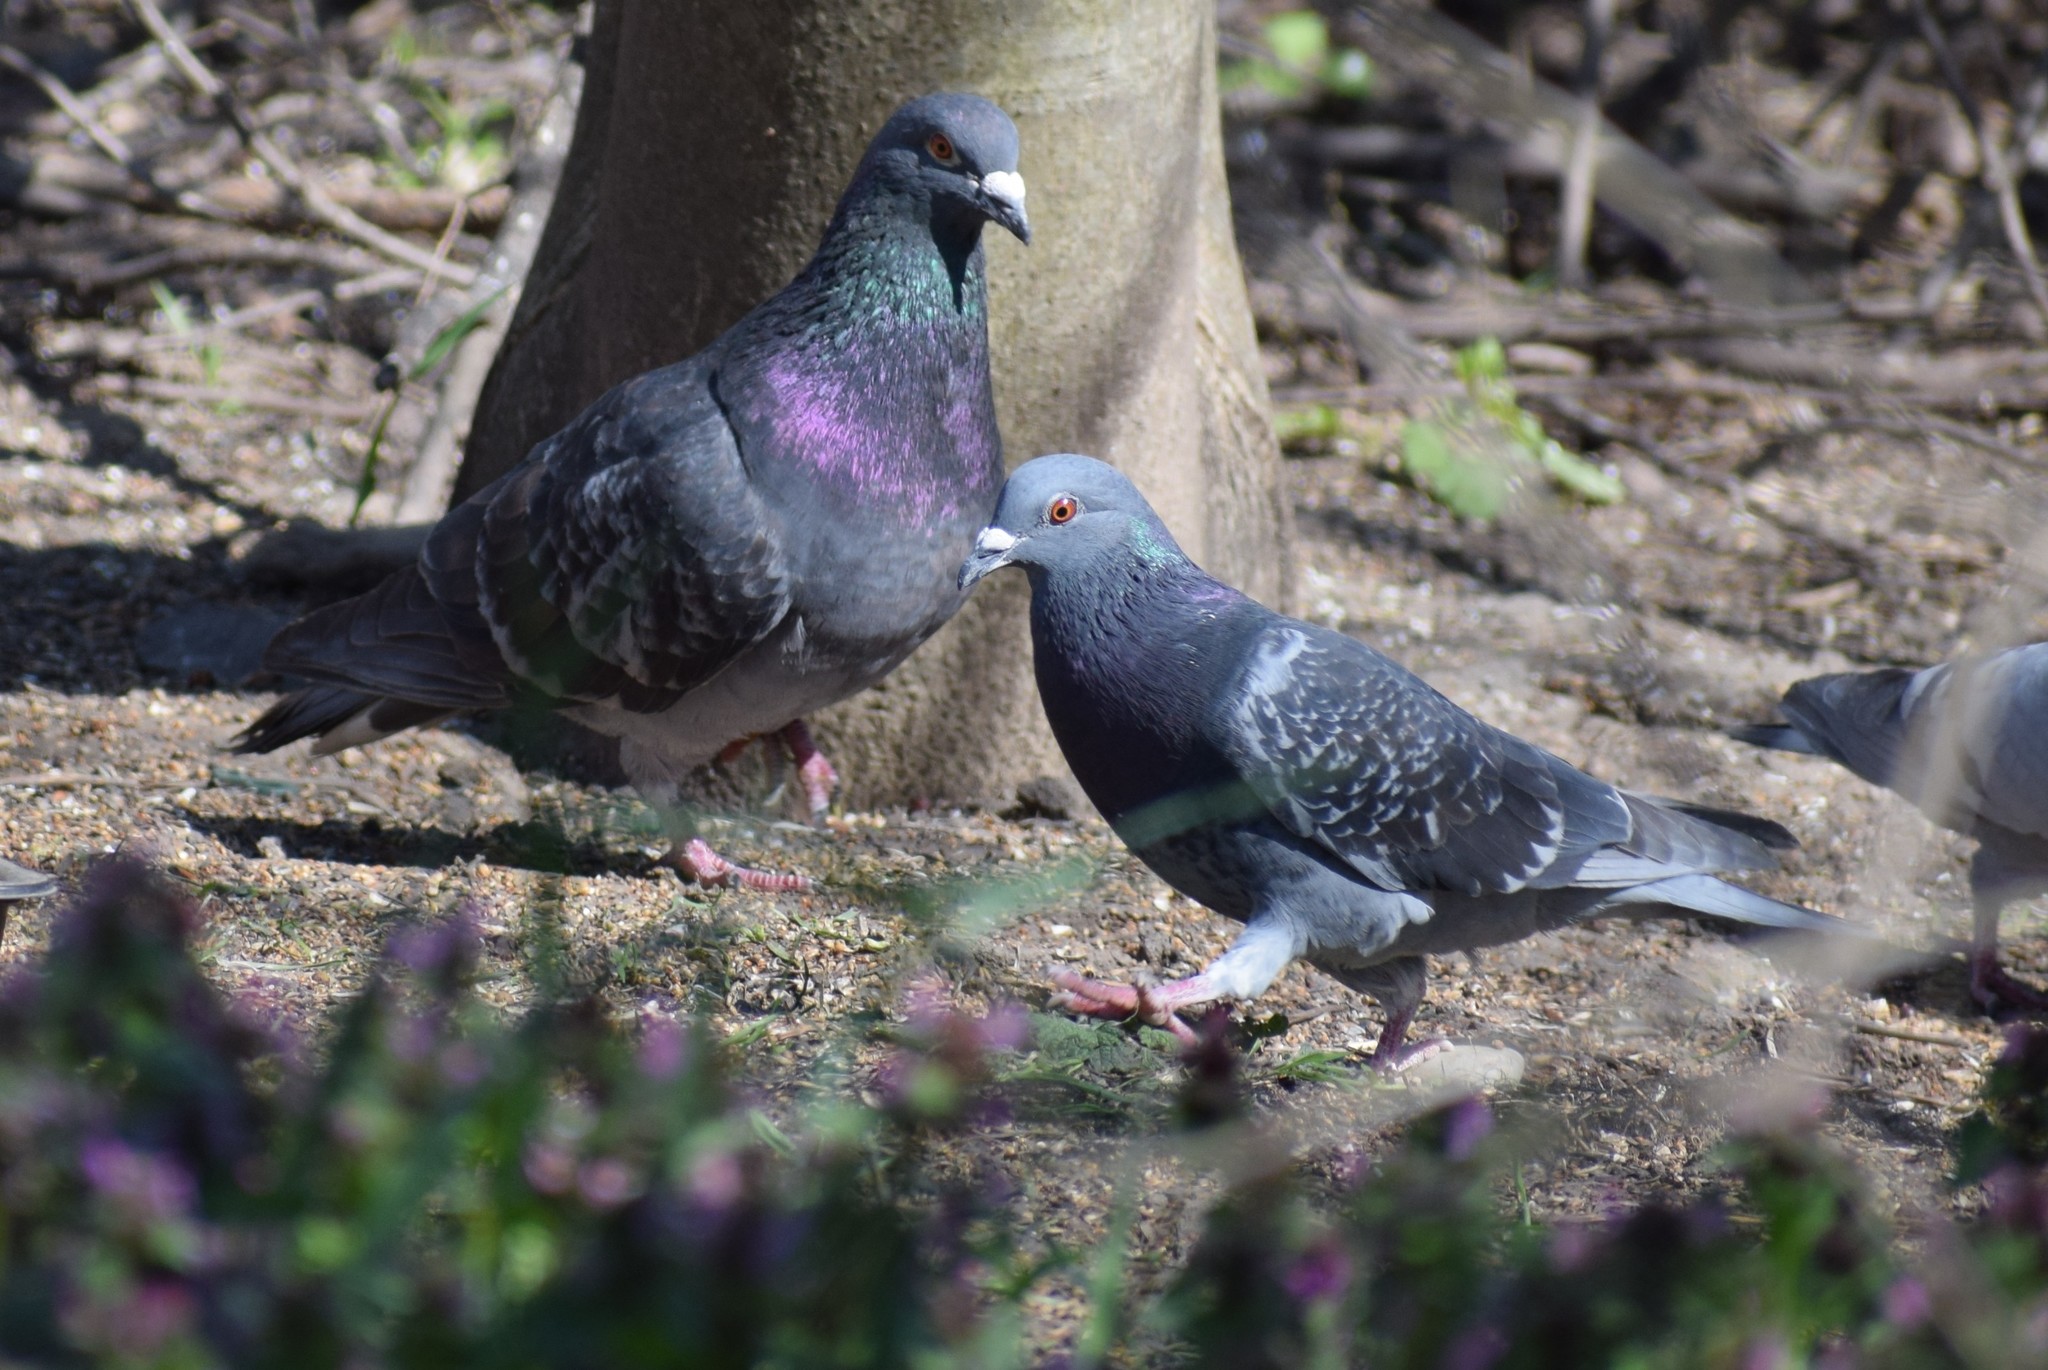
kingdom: Animalia
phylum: Chordata
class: Aves
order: Columbiformes
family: Columbidae
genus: Columba
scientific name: Columba livia
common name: Rock pigeon
